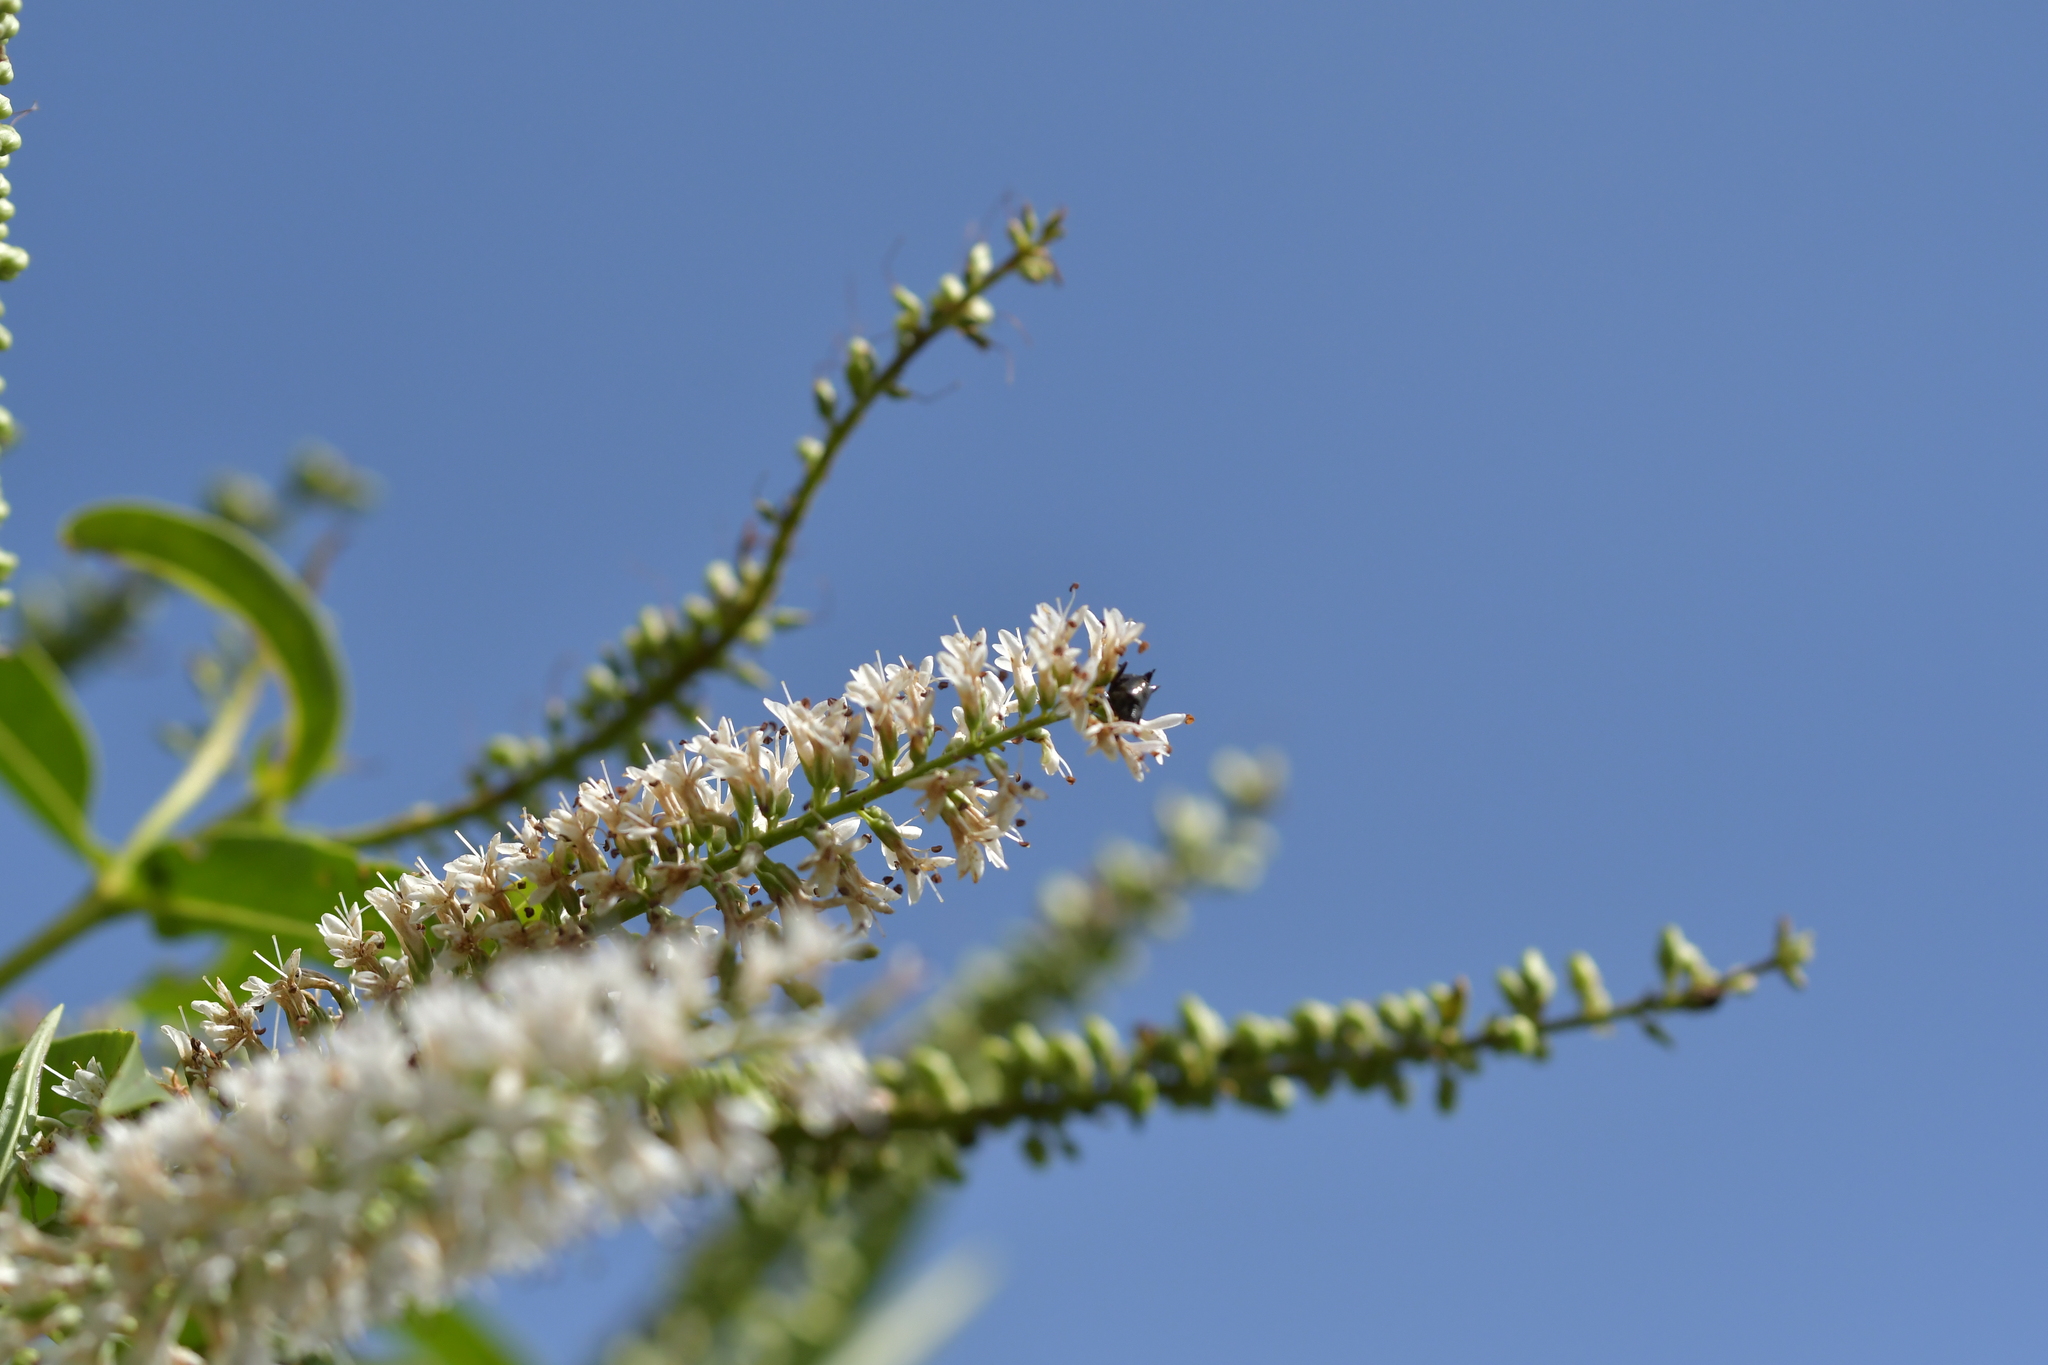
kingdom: Animalia
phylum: Arthropoda
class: Insecta
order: Coleoptera
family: Curculionidae
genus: Scolopterus
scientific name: Scolopterus aequus
